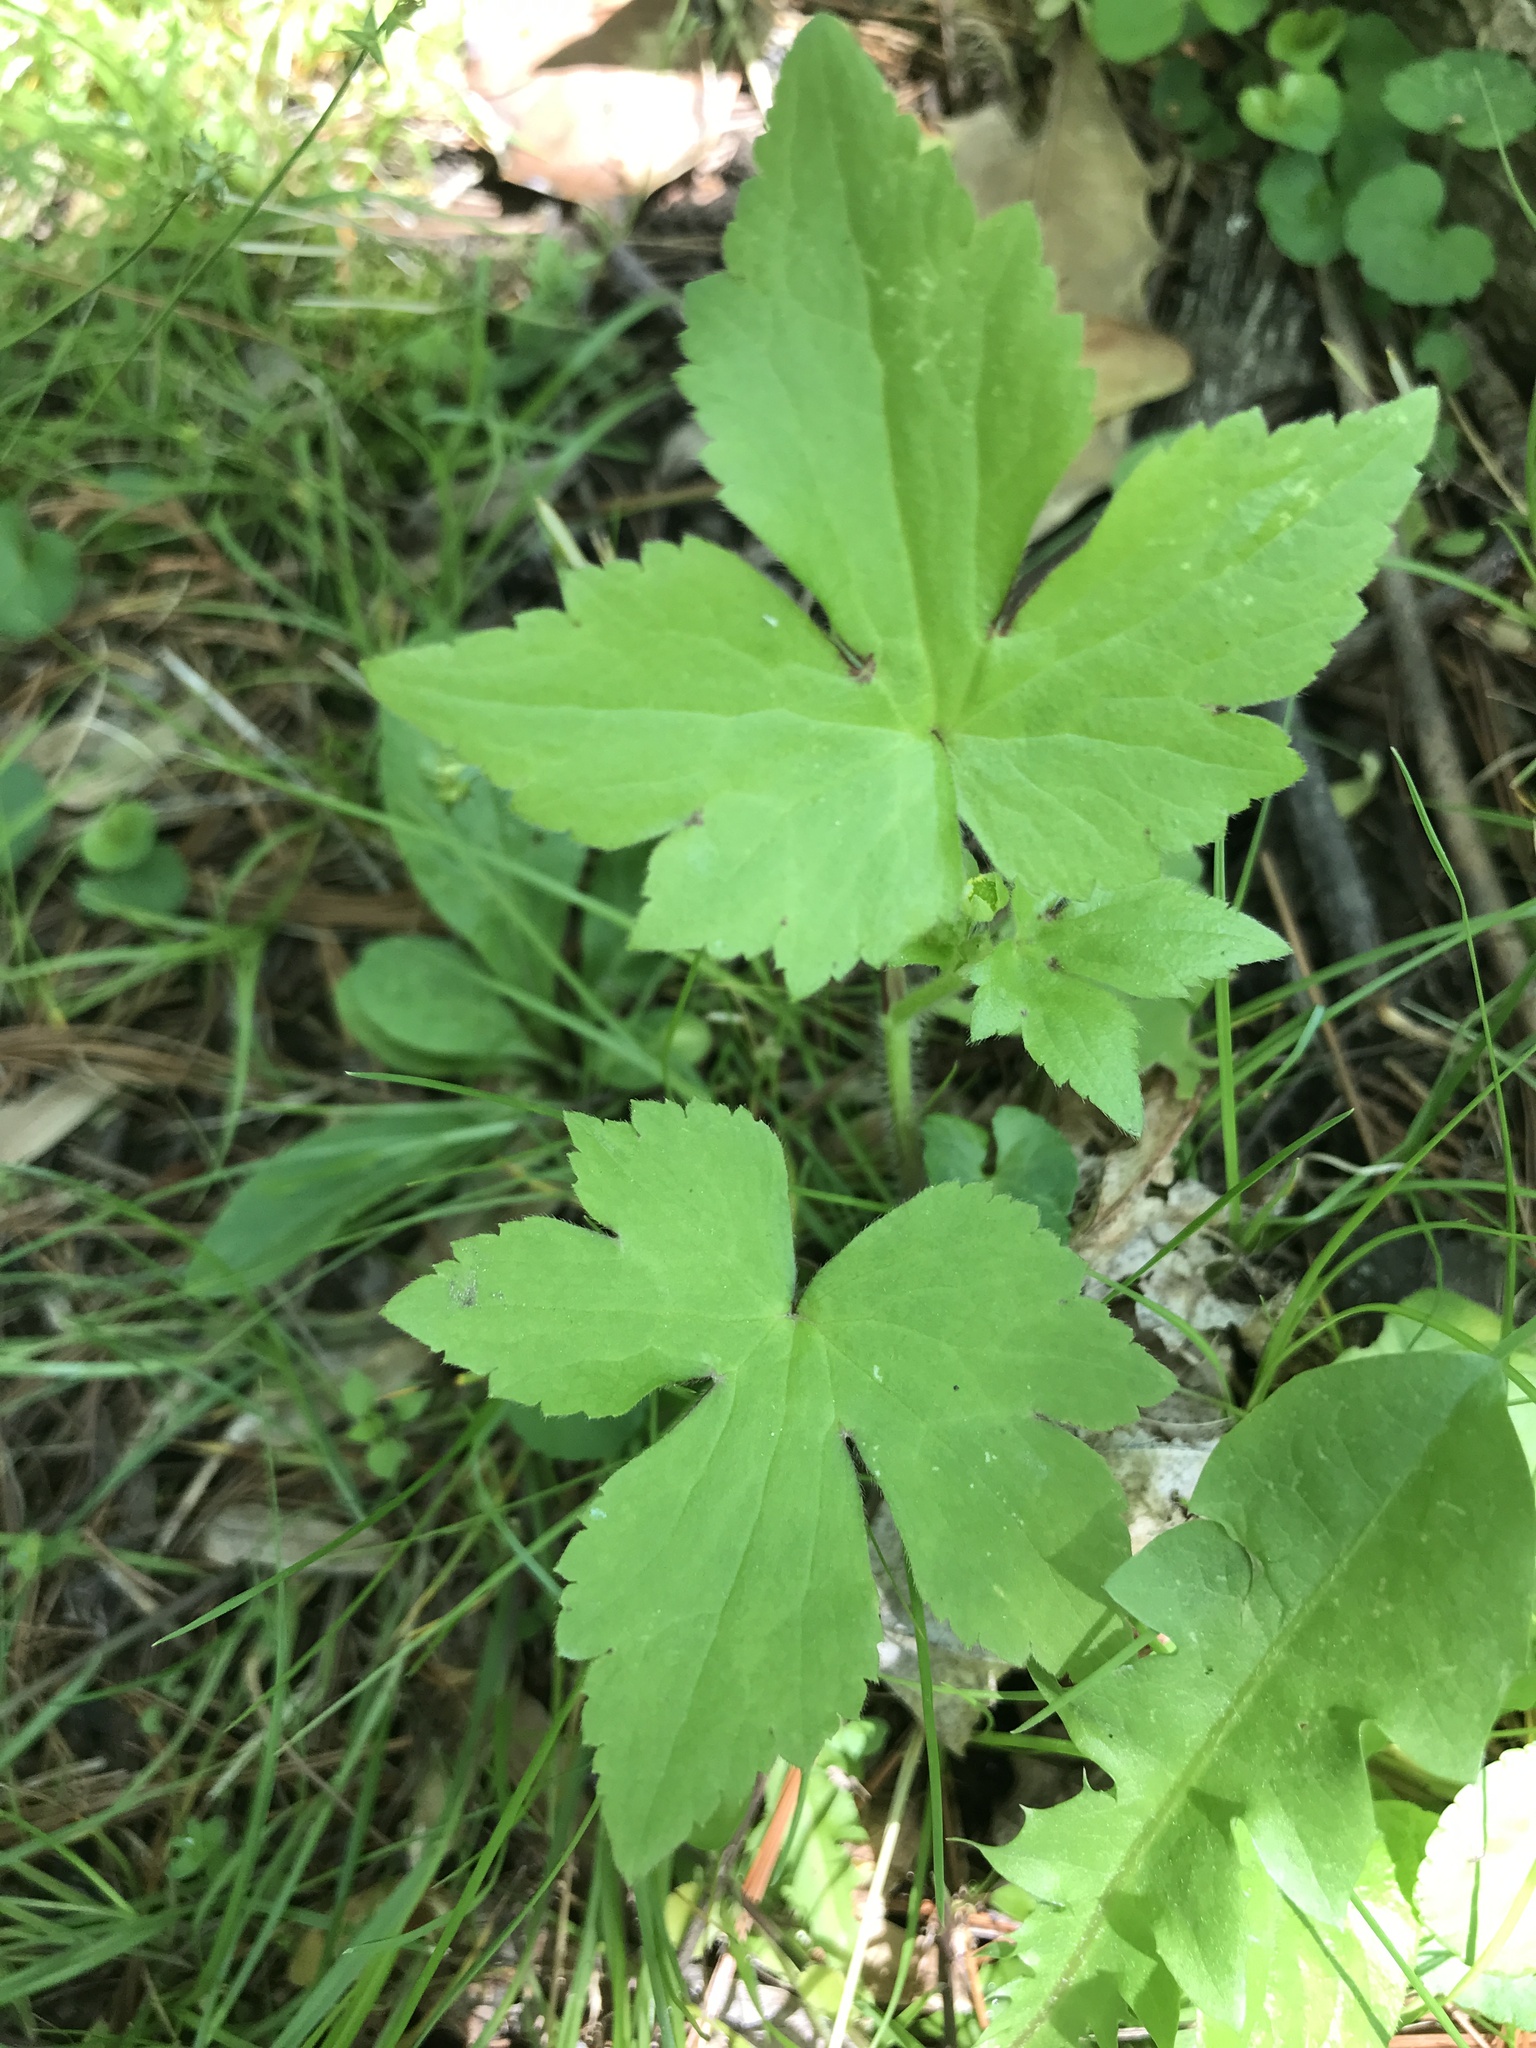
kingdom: Plantae
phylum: Tracheophyta
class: Magnoliopsida
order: Ranunculales
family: Ranunculaceae
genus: Ranunculus
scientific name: Ranunculus recurvatus
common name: Blisterwort
